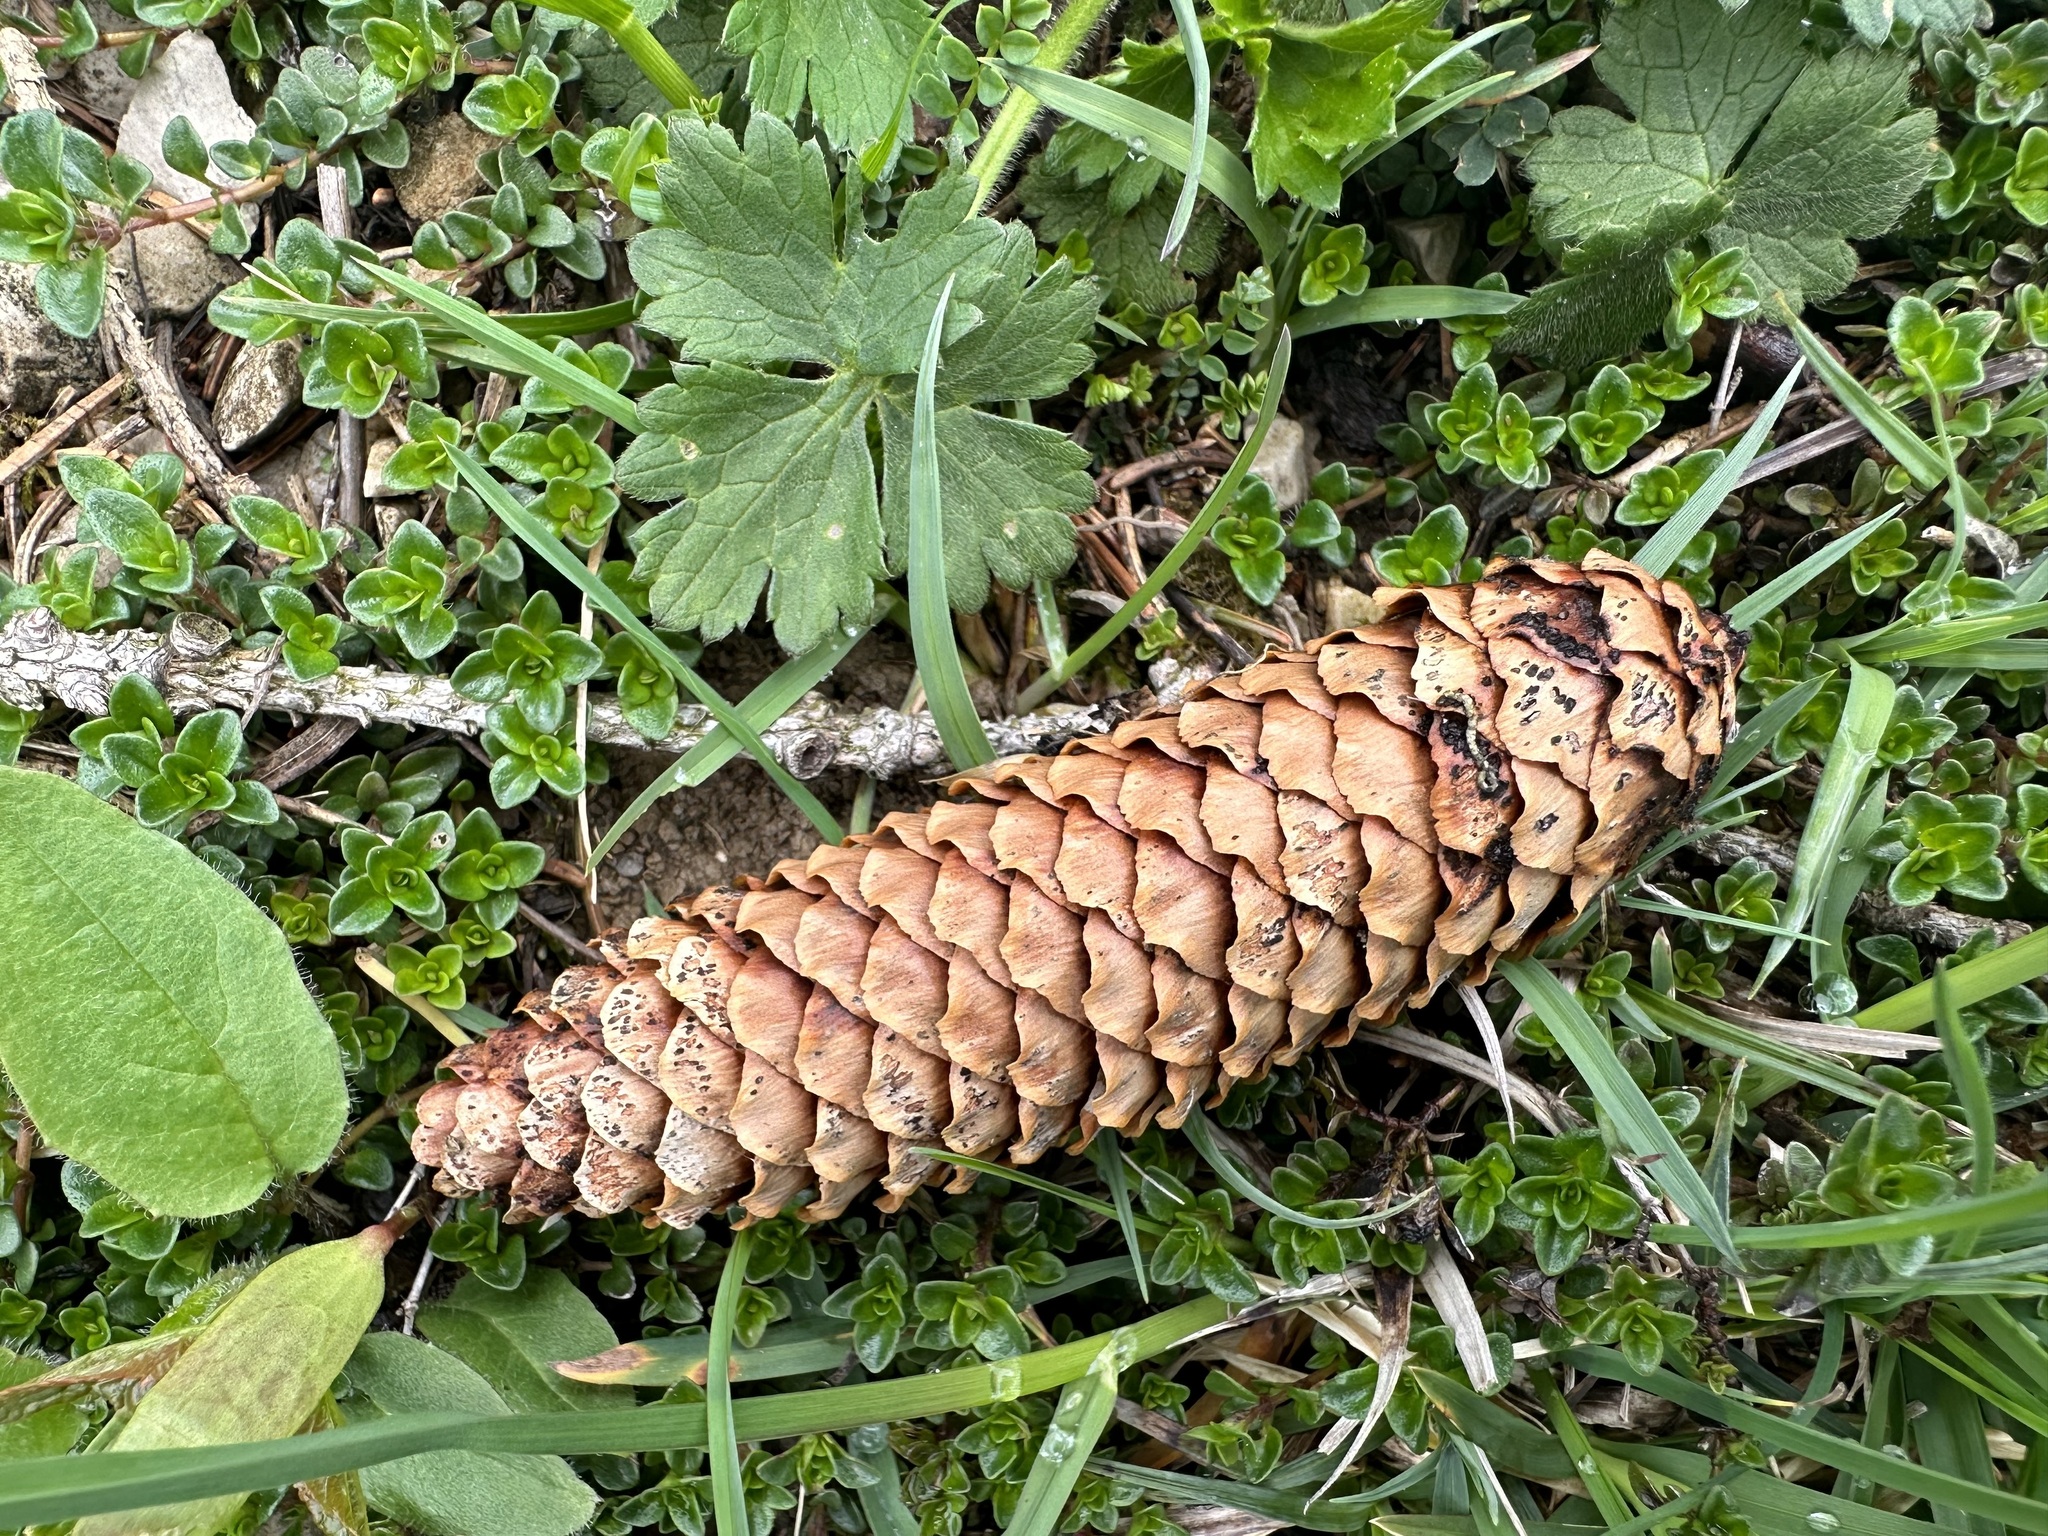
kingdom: Fungi
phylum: Ascomycota
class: Dothideomycetes
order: Pleosporales
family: Melanommataceae
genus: Phragmotrichum
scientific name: Phragmotrichum chailletii
